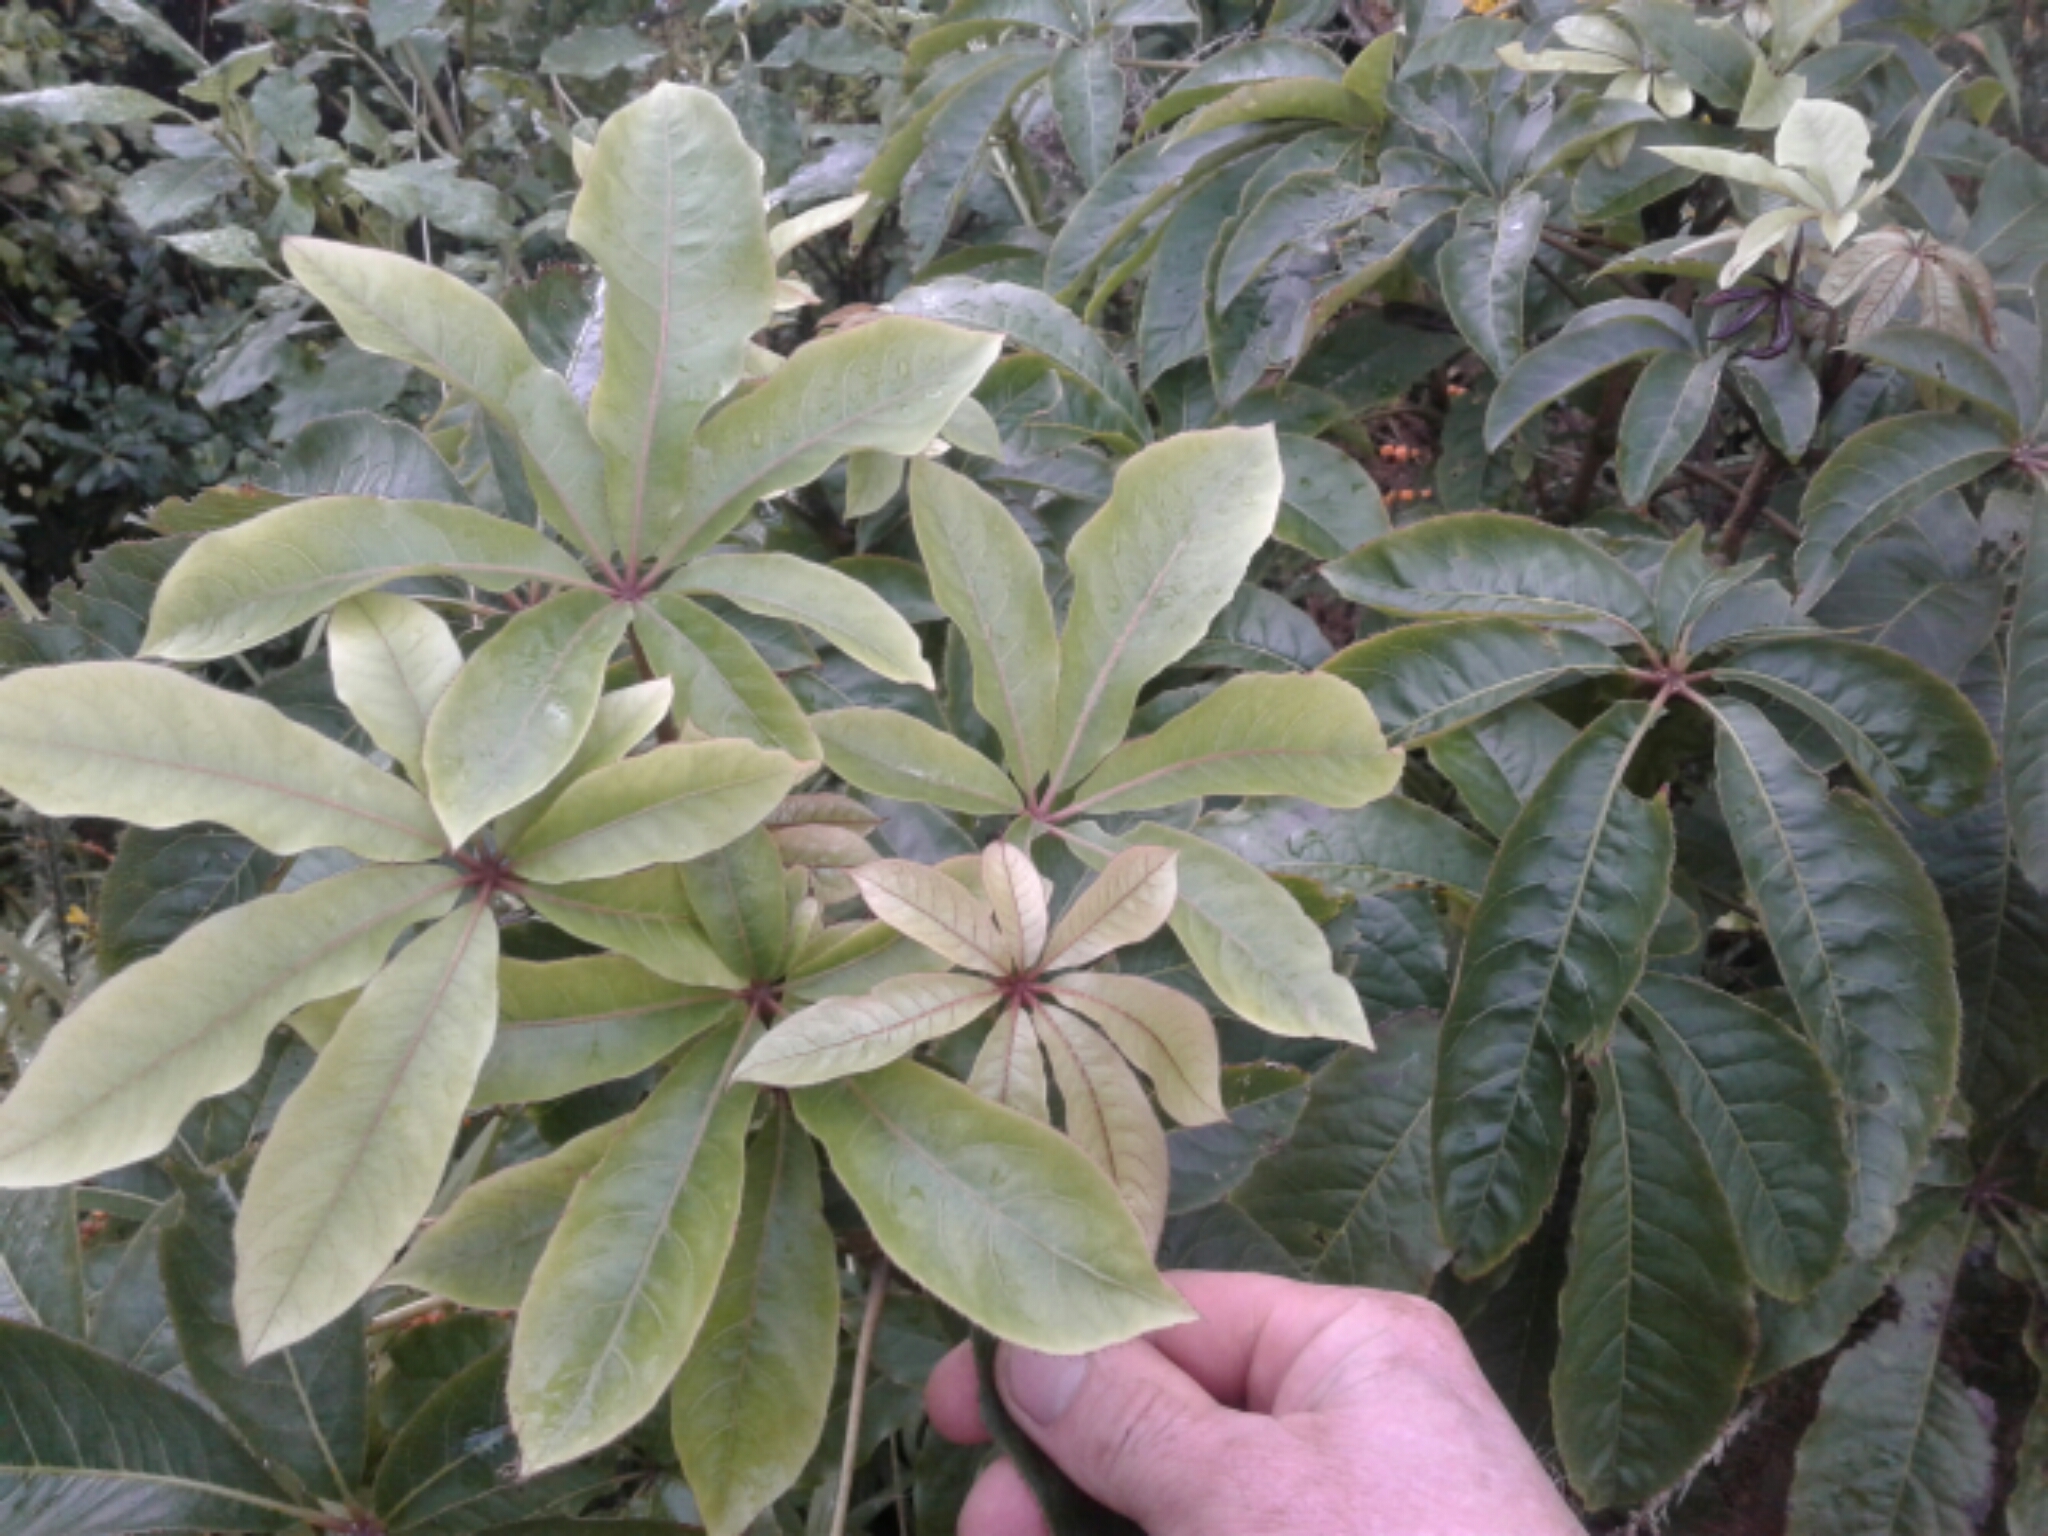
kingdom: Plantae
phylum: Tracheophyta
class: Magnoliopsida
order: Apiales
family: Araliaceae
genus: Schefflera
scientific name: Schefflera digitata
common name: Pate
